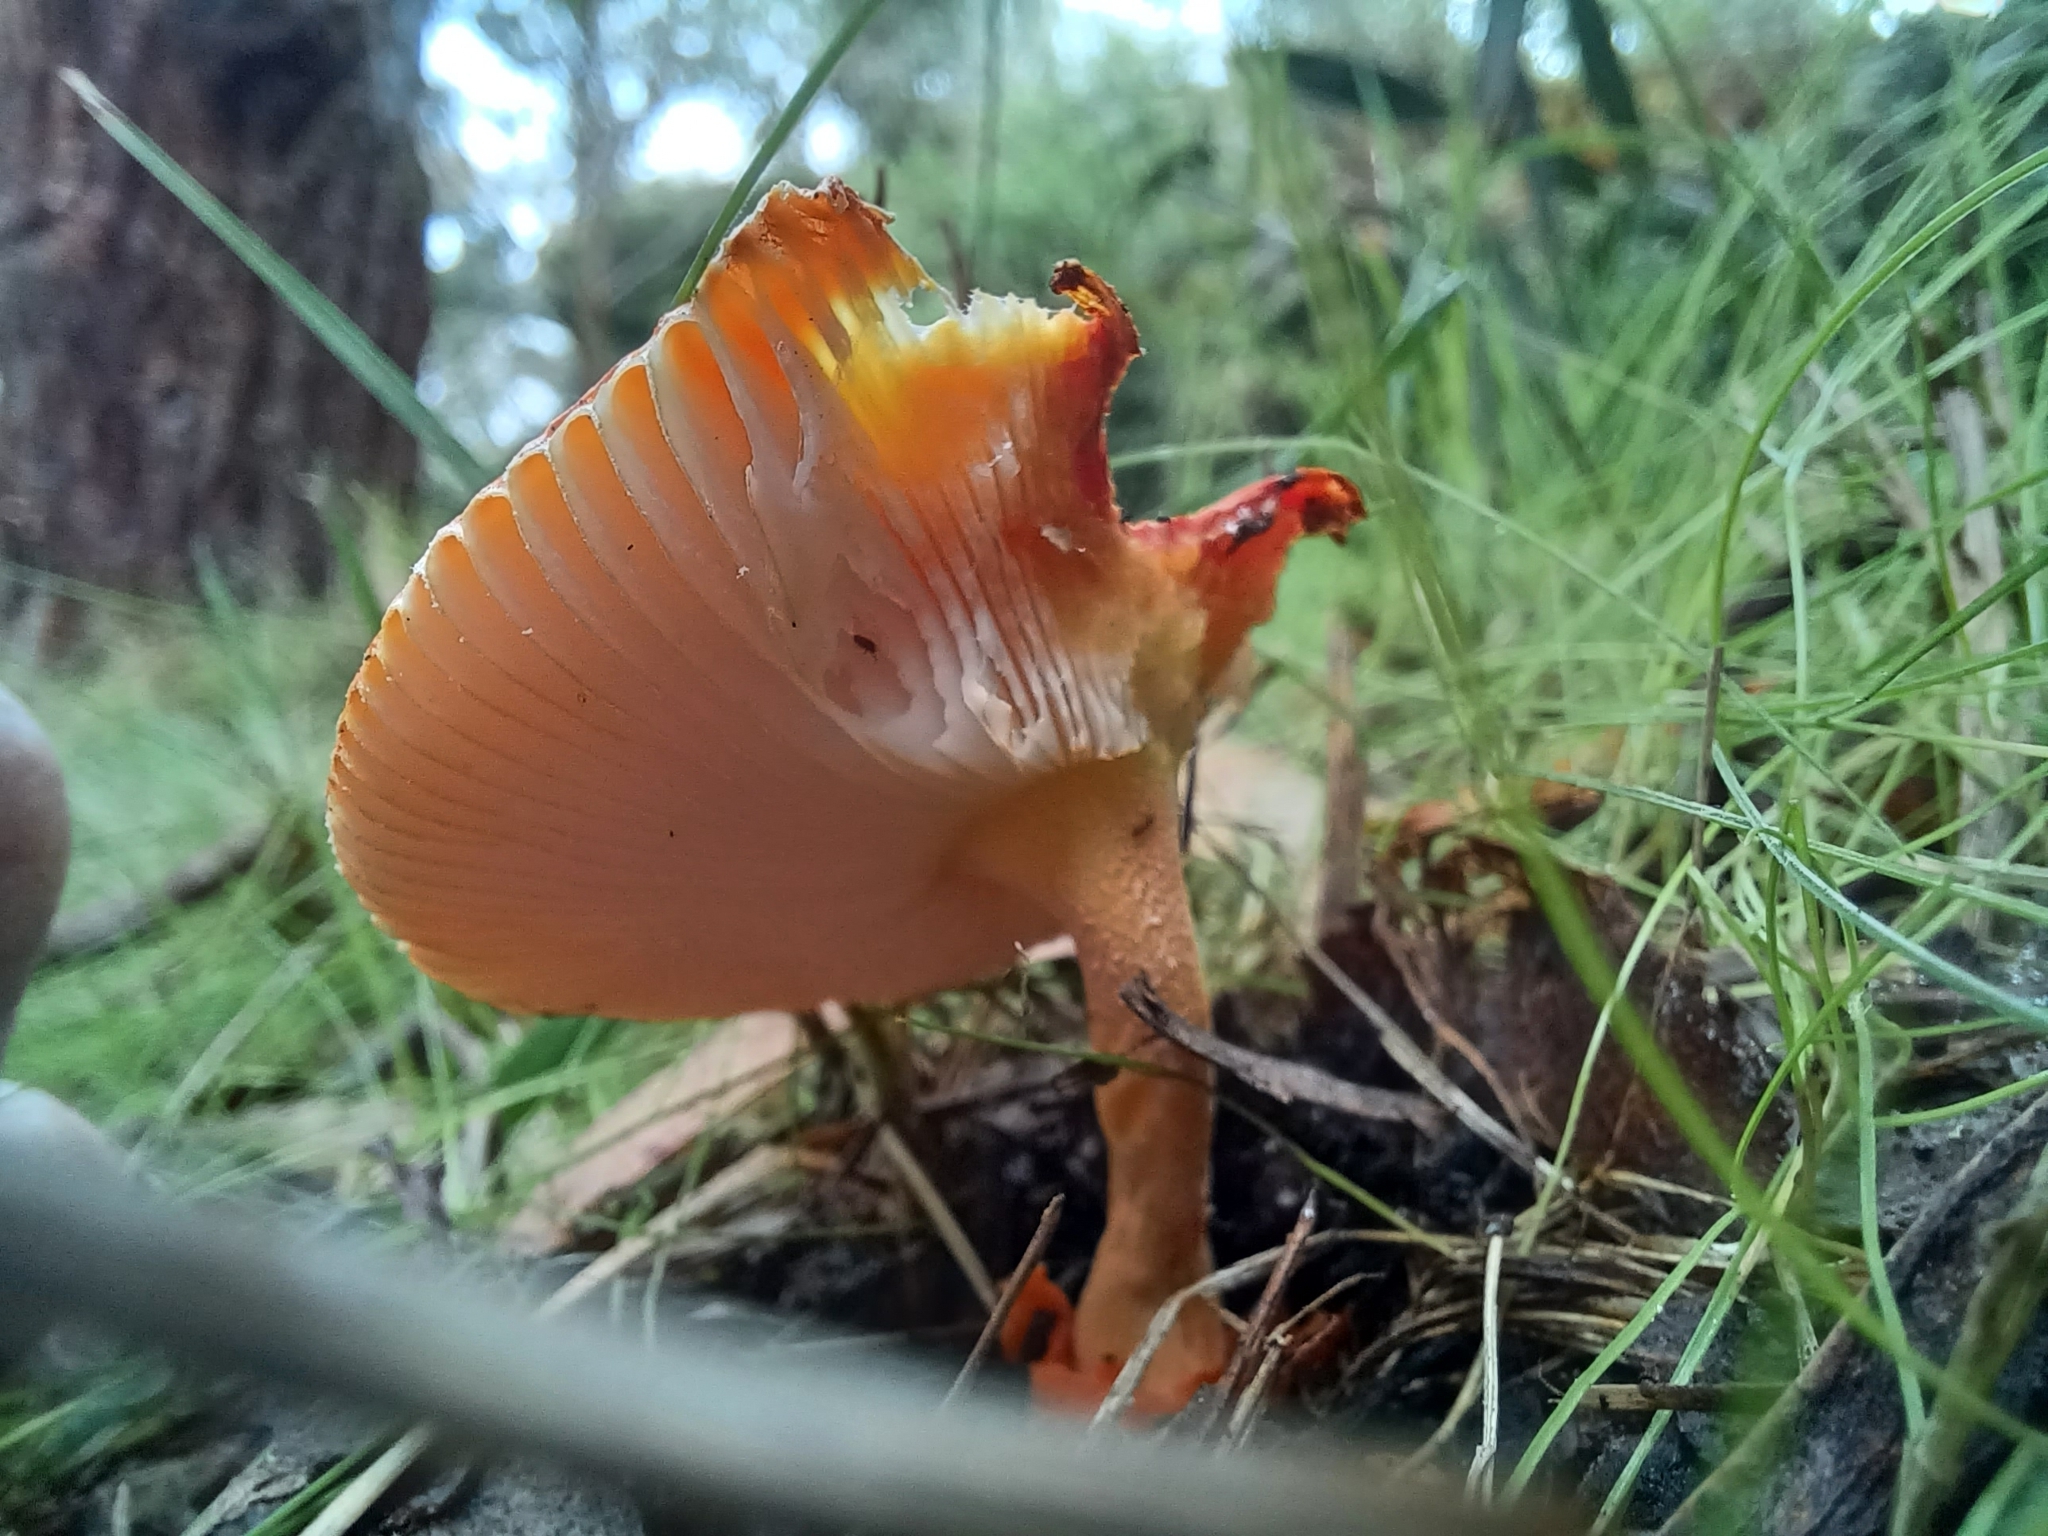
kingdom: Fungi
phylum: Basidiomycota
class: Agaricomycetes
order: Agaricales
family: Amanitaceae
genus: Amanita
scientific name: Amanita xanthocephala
